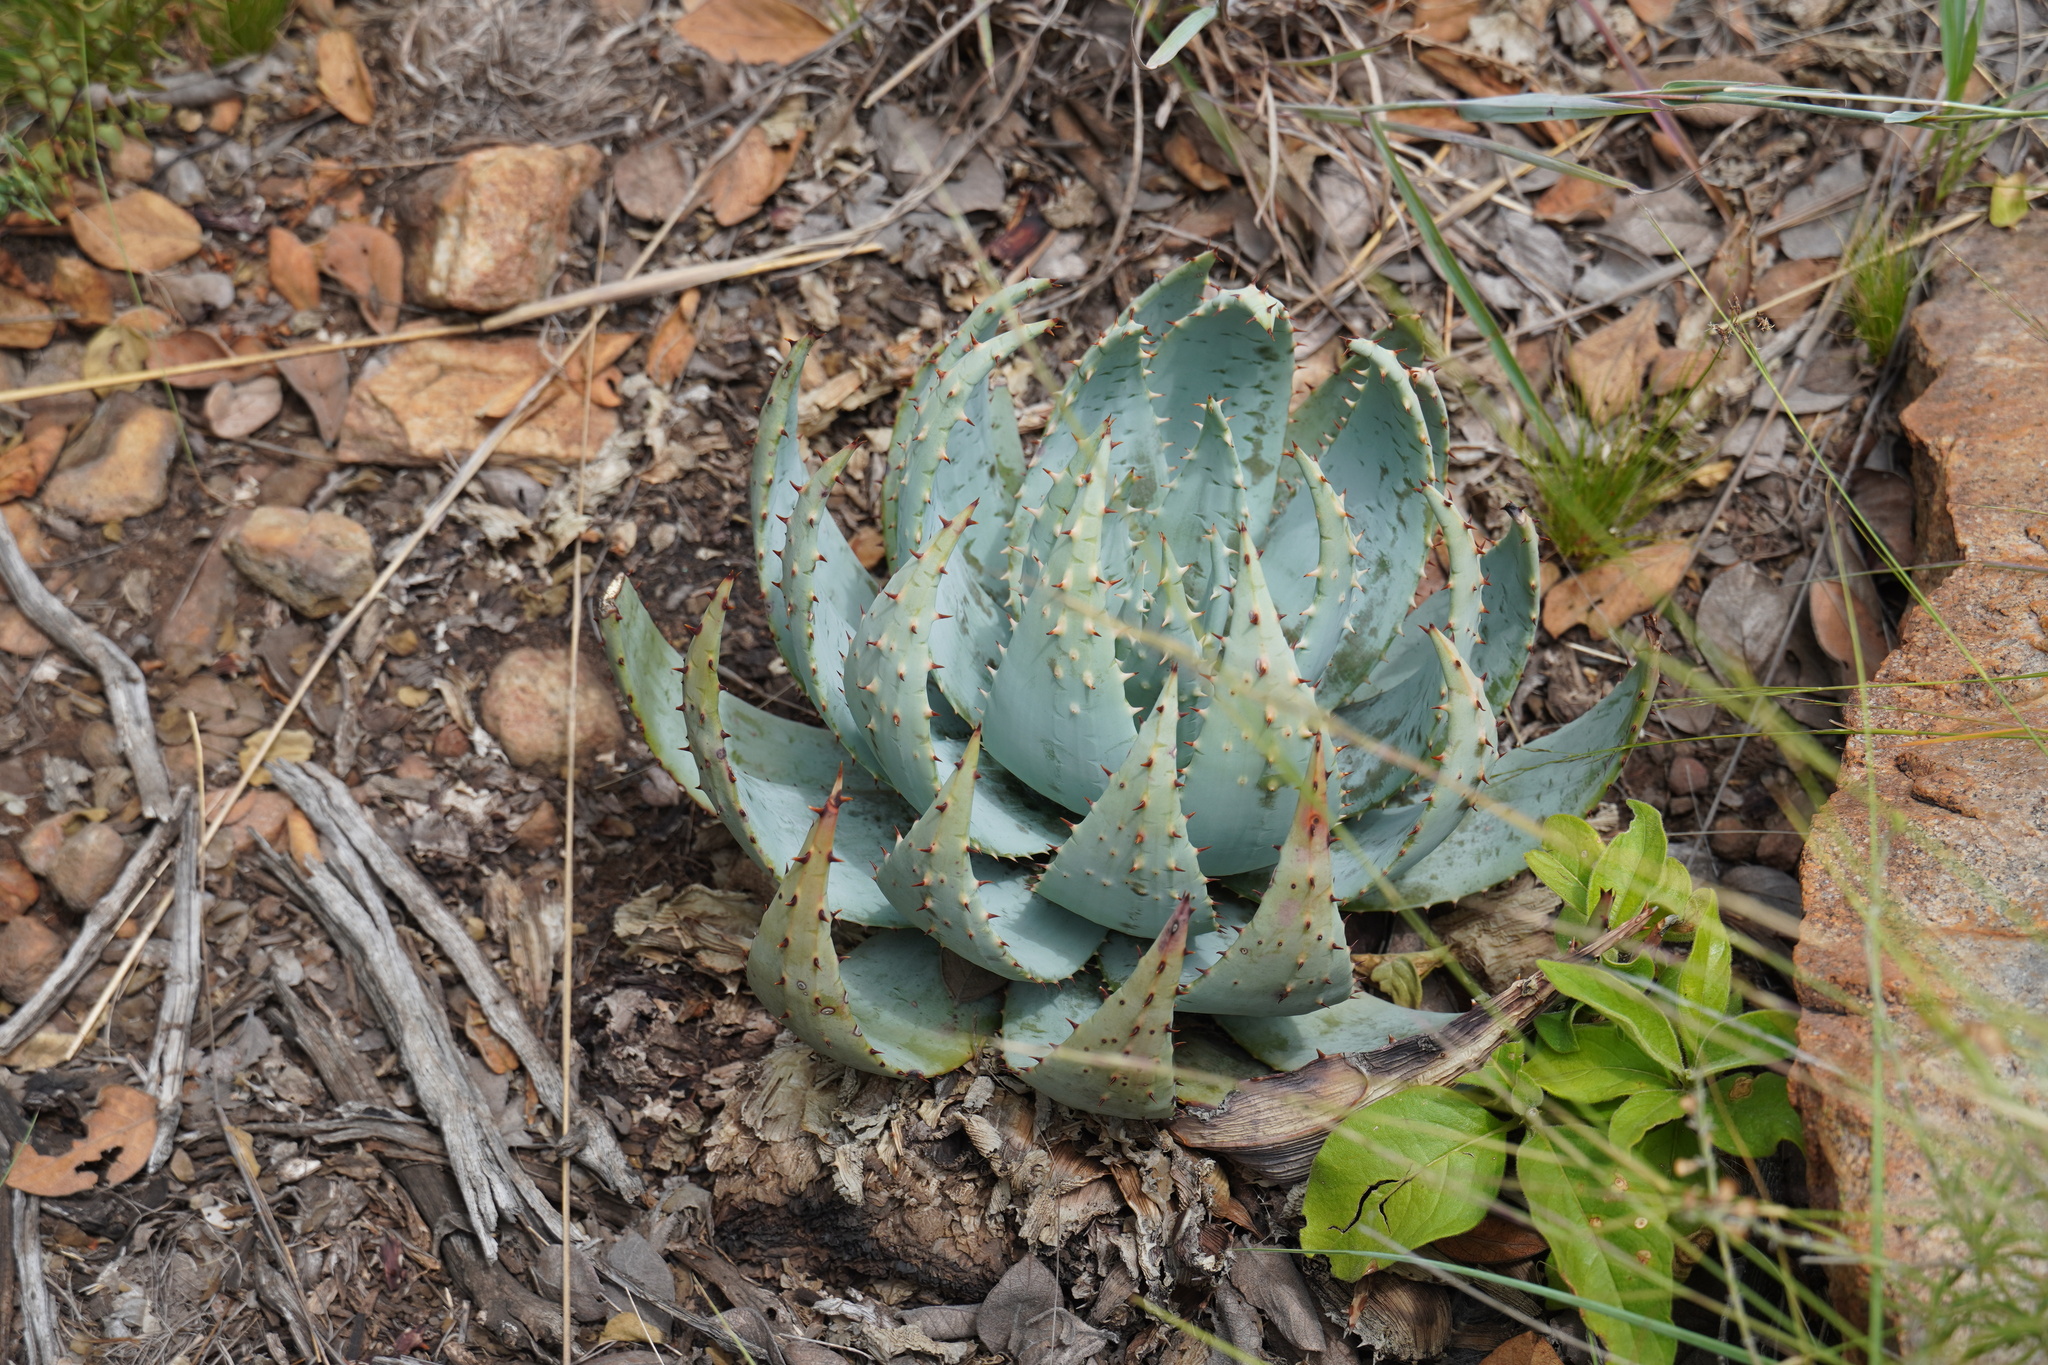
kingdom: Plantae
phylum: Tracheophyta
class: Liliopsida
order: Asparagales
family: Asphodelaceae
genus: Aloe
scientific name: Aloe peglerae
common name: Red-hot poker
